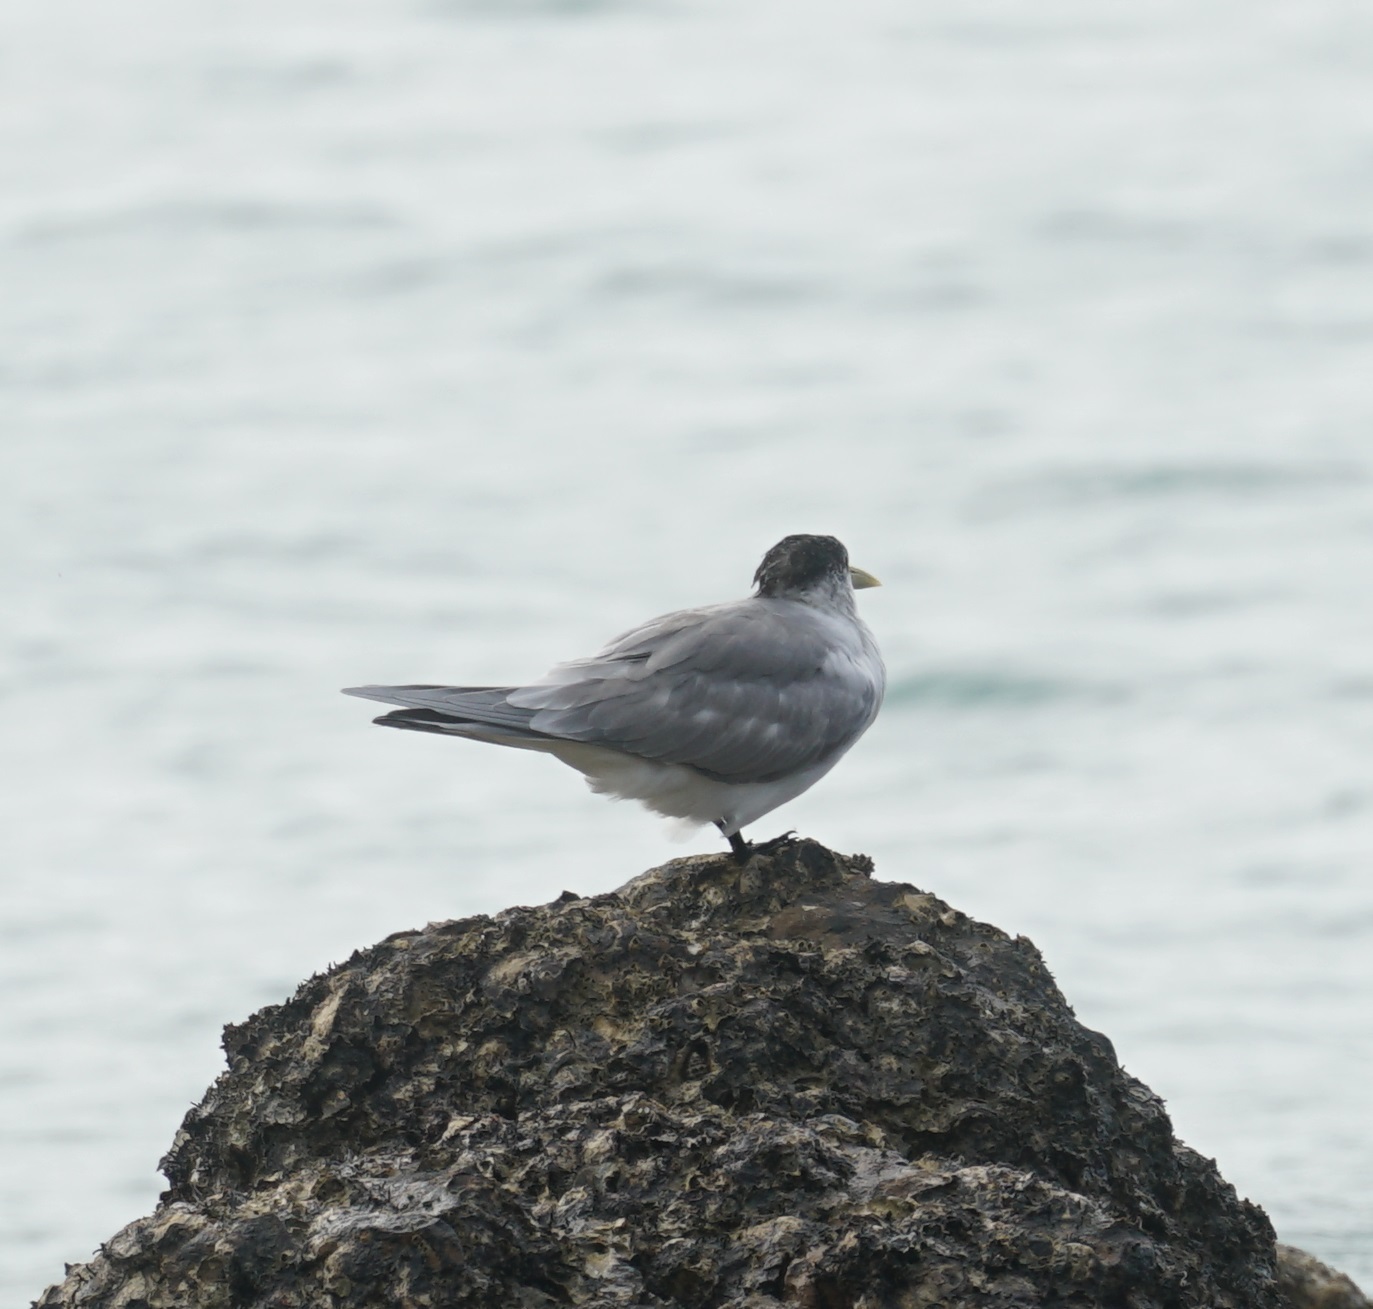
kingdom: Animalia
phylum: Chordata
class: Aves
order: Charadriiformes
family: Laridae
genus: Thalasseus
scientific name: Thalasseus bergii
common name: Greater crested tern
